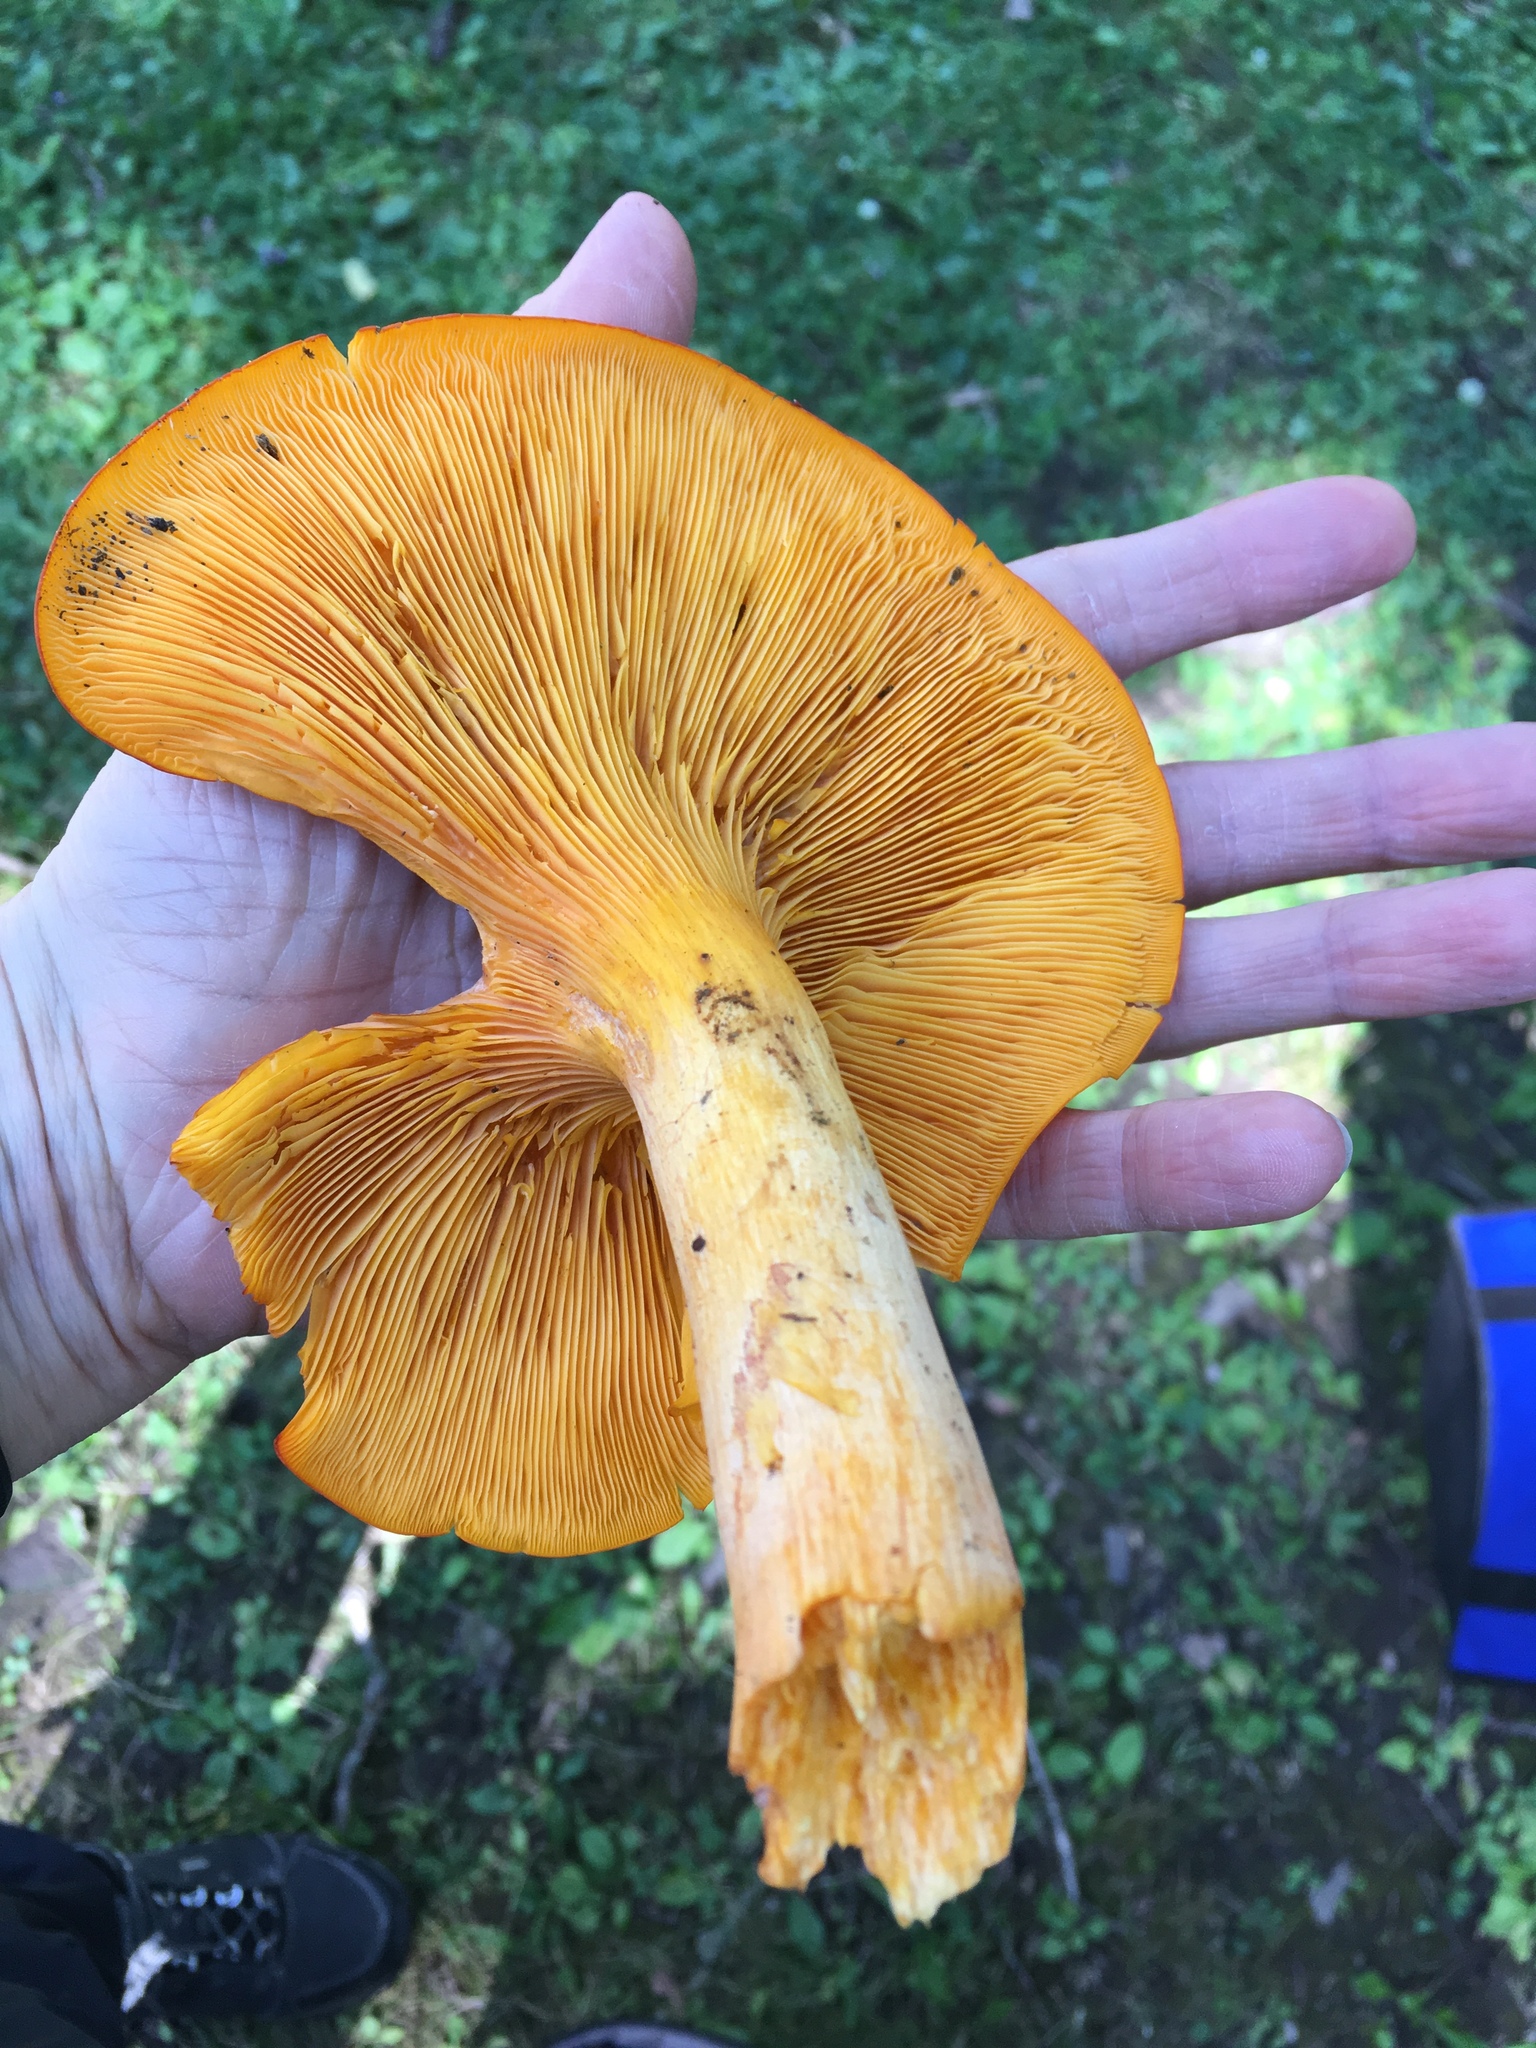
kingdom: Fungi
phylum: Basidiomycota
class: Agaricomycetes
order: Agaricales
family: Omphalotaceae
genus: Omphalotus
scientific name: Omphalotus illudens
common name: Jack o lantern
